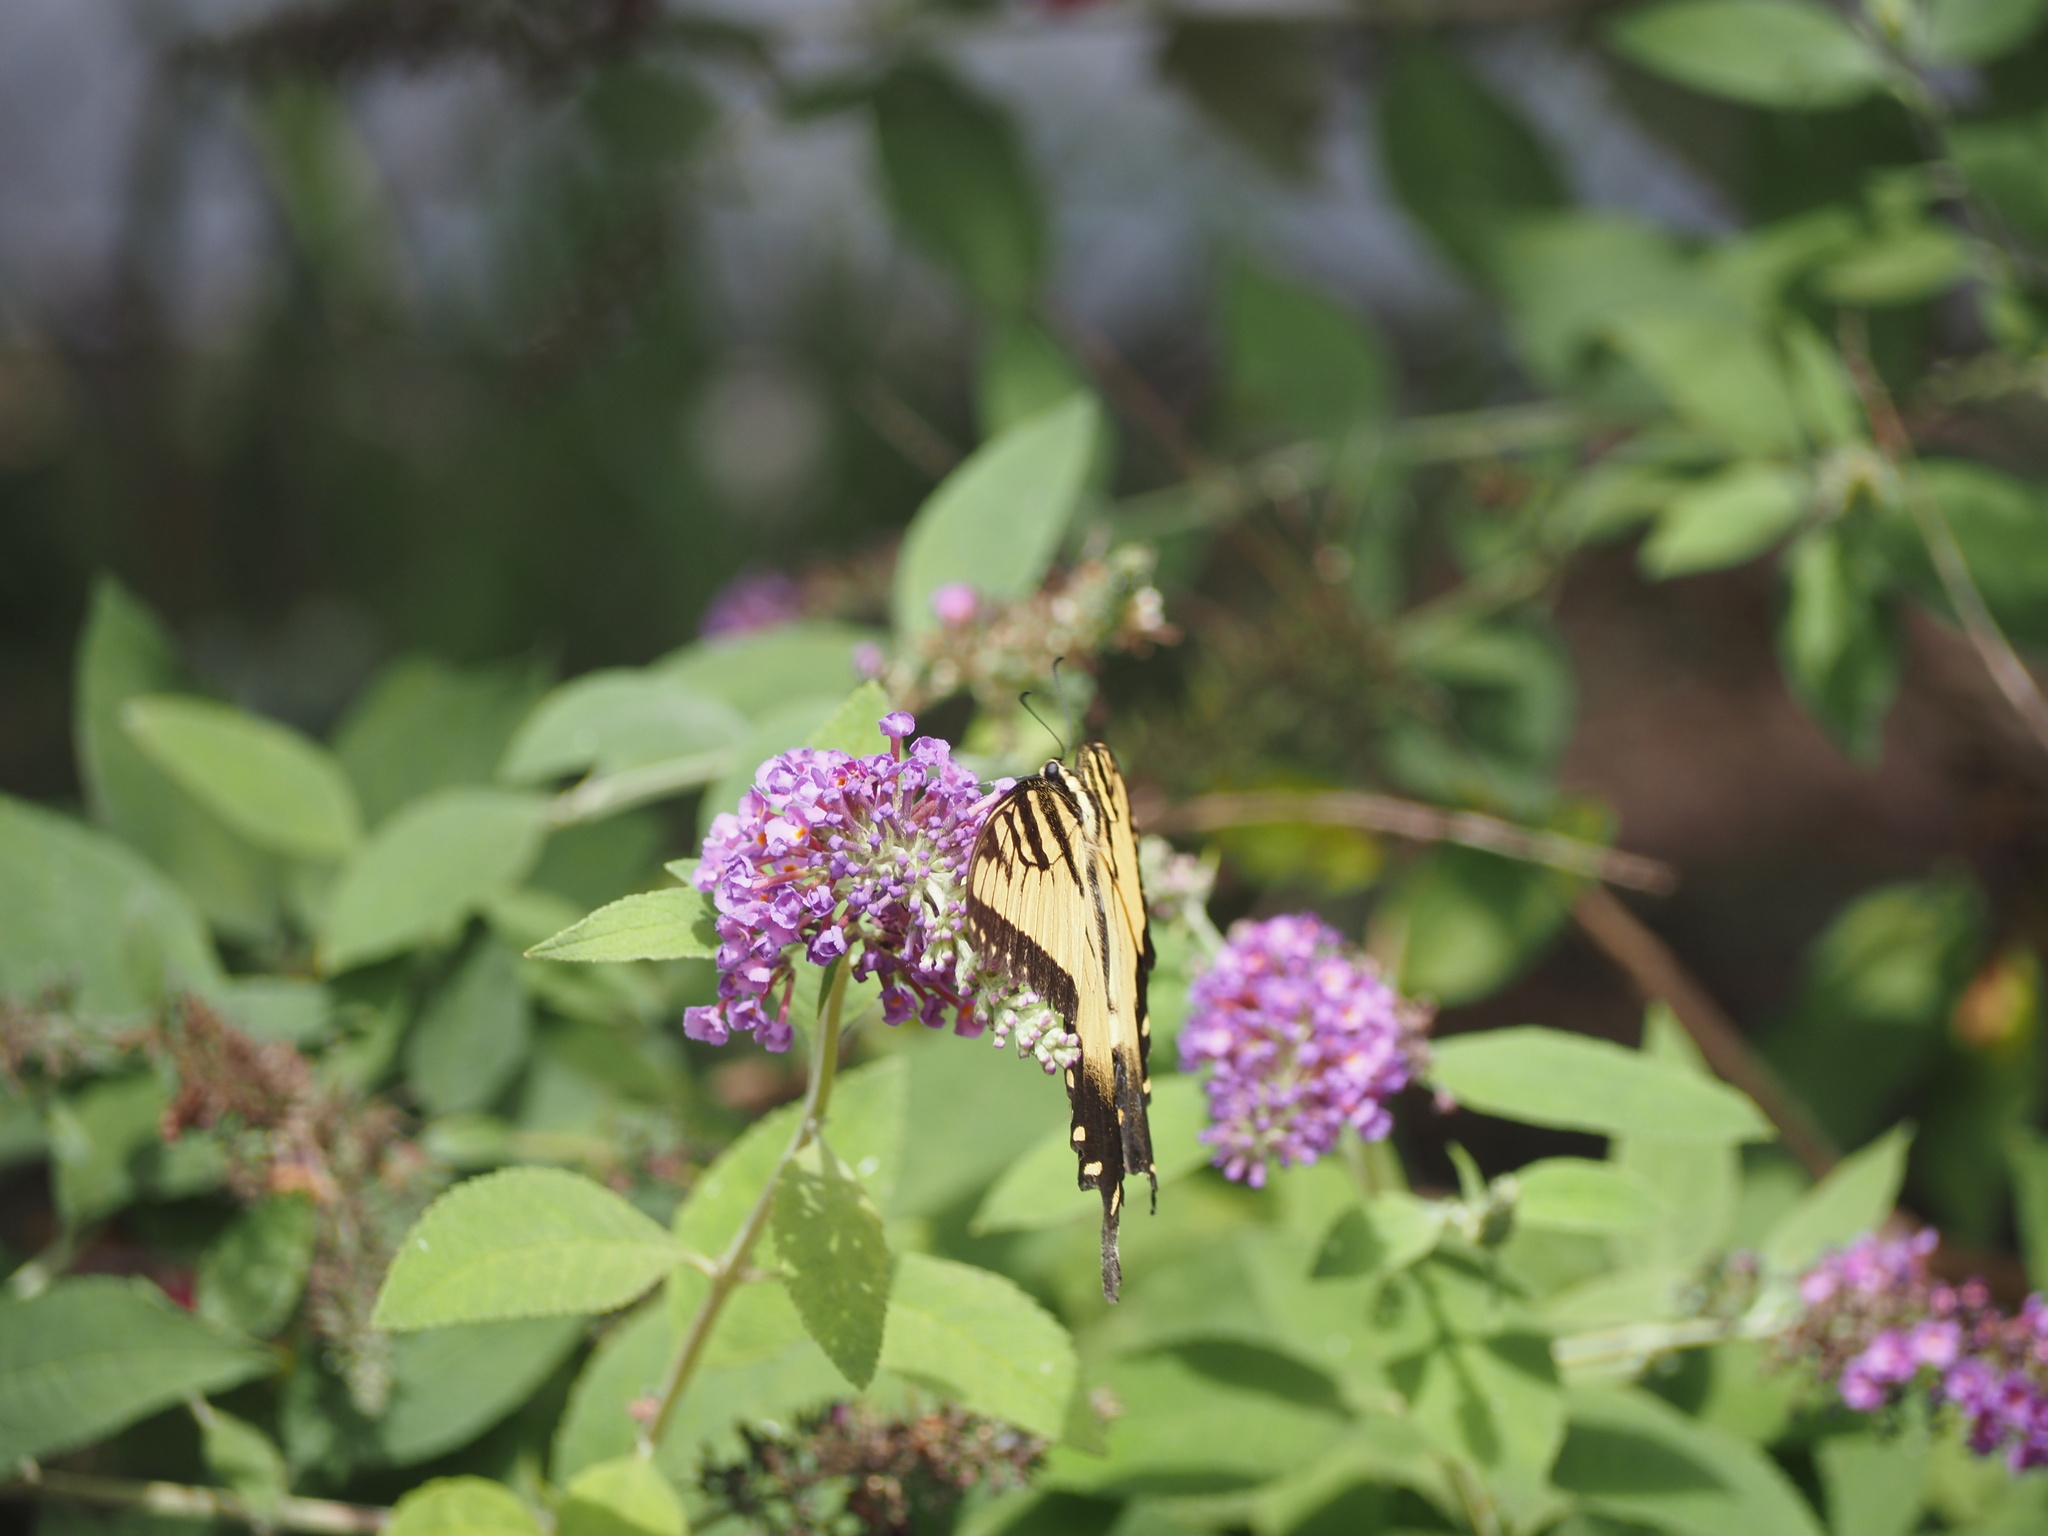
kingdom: Animalia
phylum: Arthropoda
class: Insecta
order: Lepidoptera
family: Papilionidae
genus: Papilio
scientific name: Papilio glaucus
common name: Tiger swallowtail
